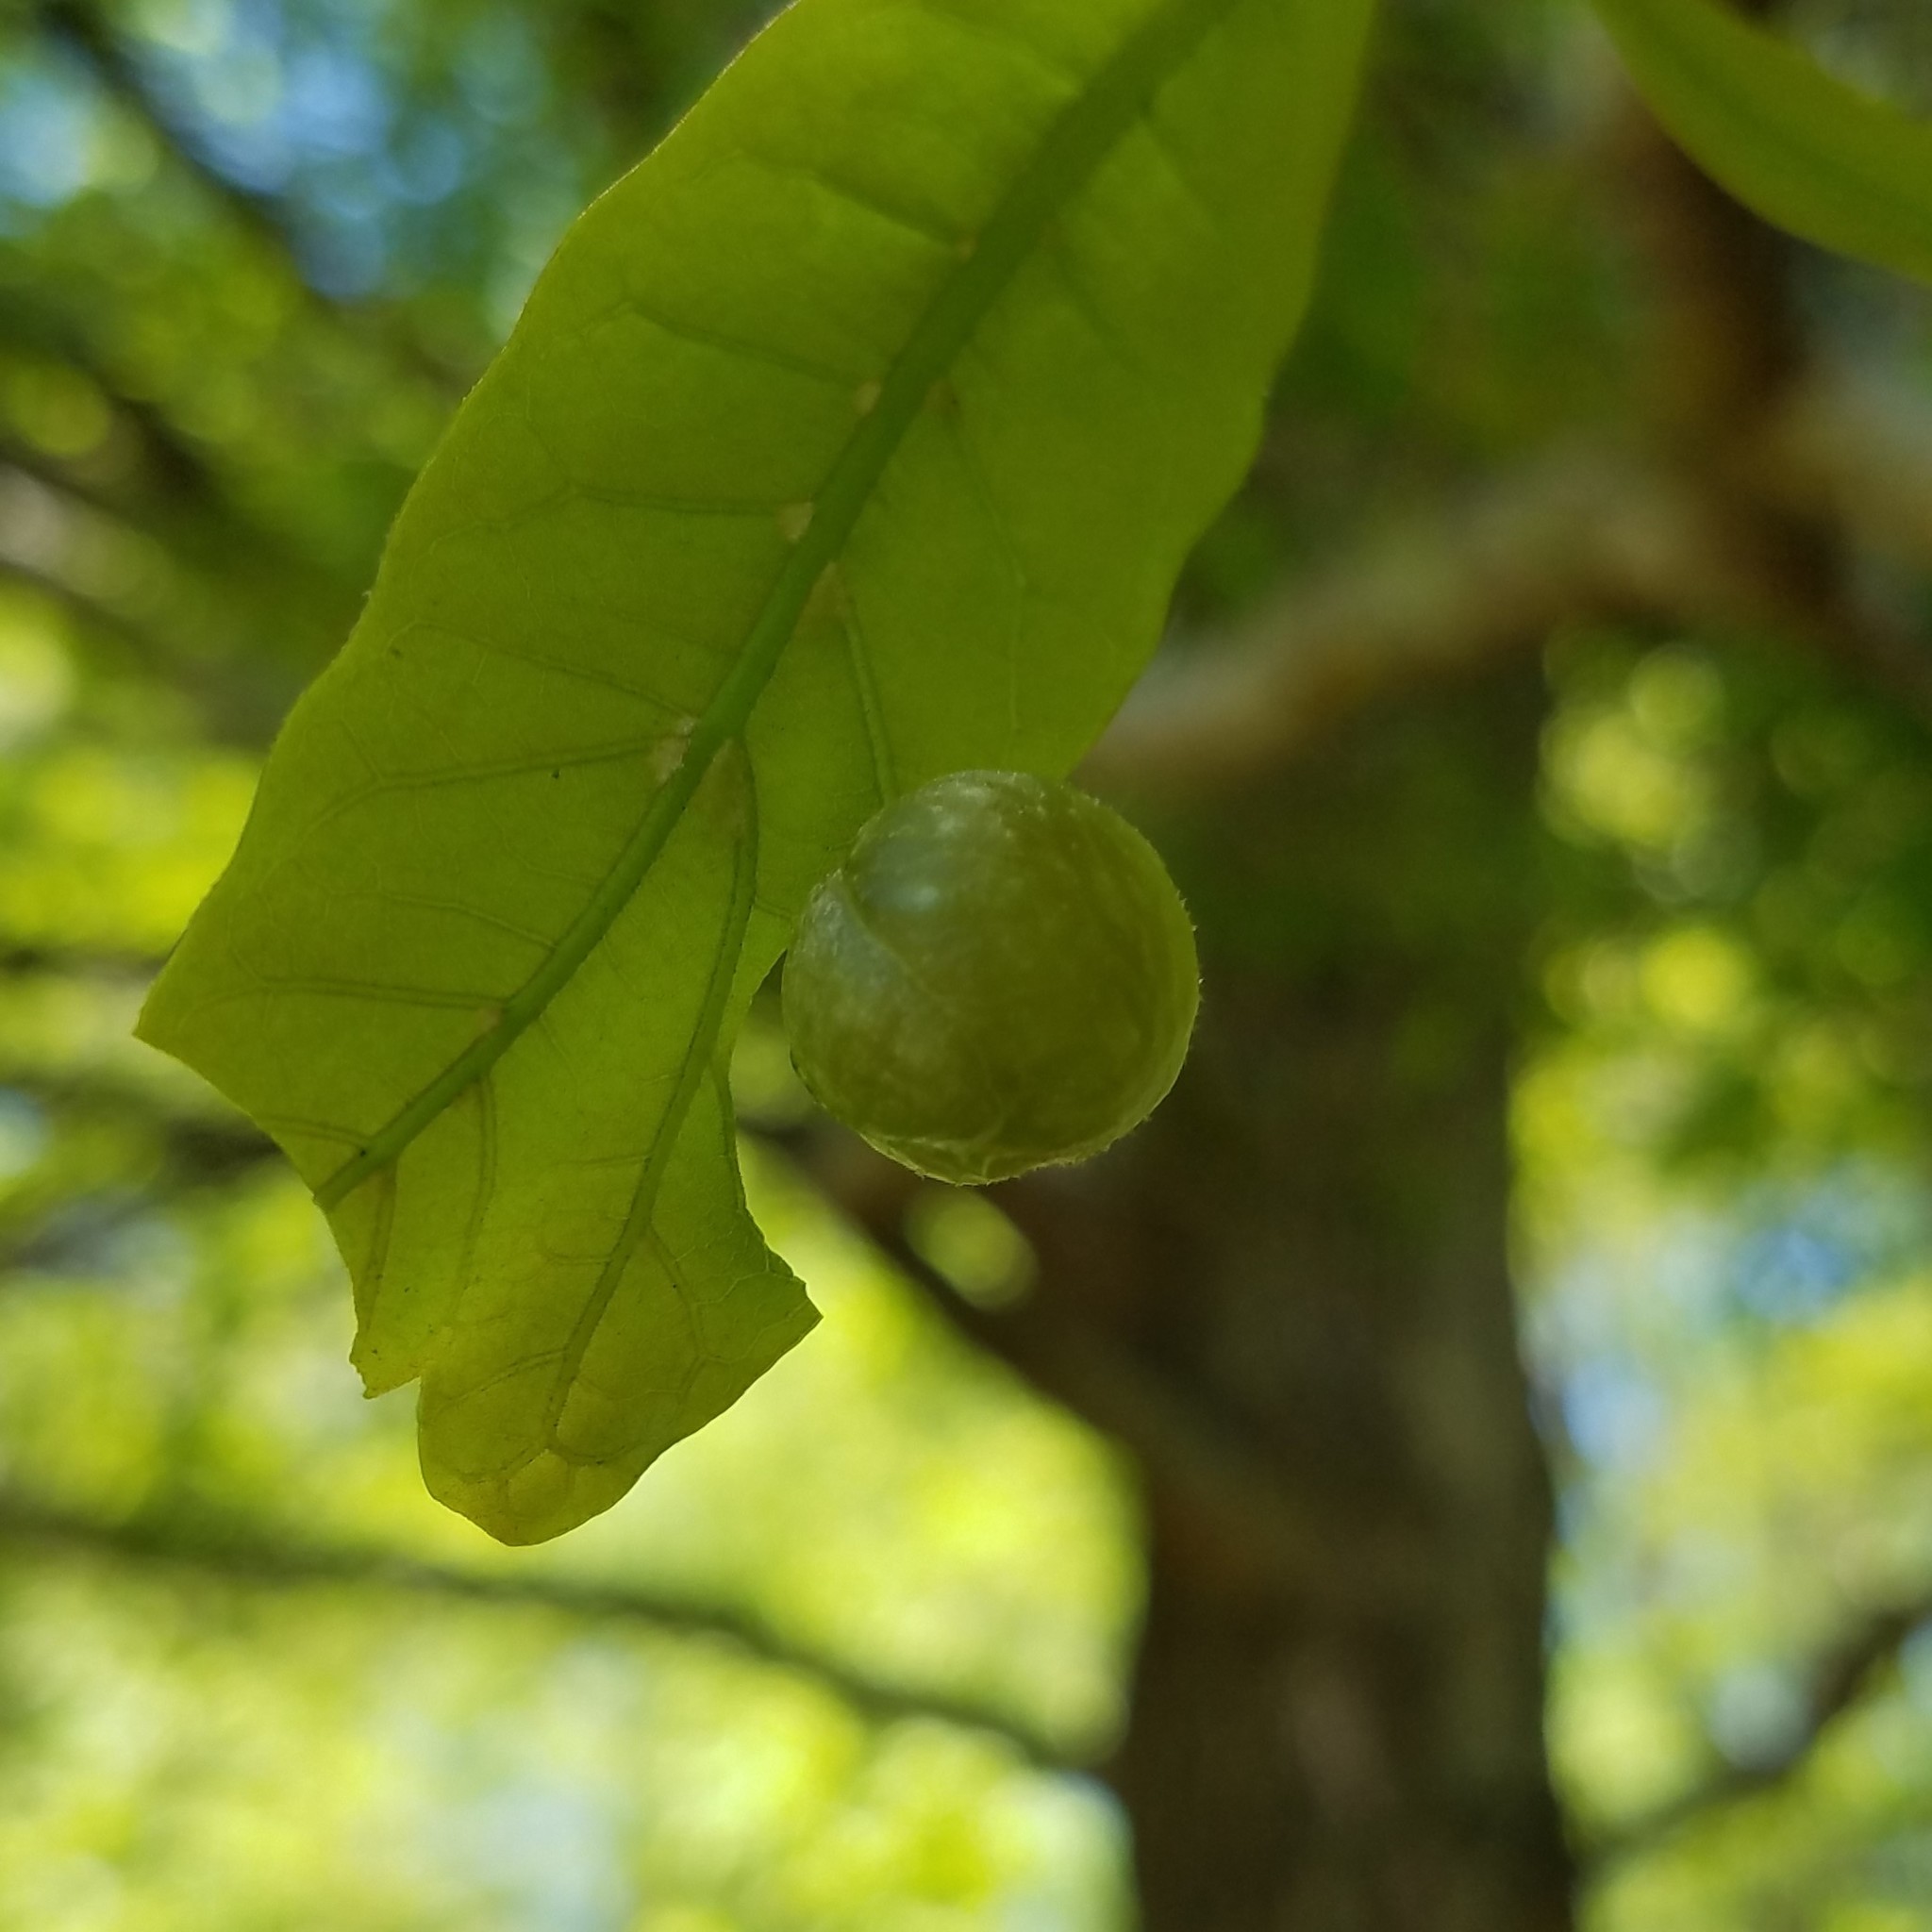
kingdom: Animalia
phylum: Arthropoda
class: Insecta
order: Hymenoptera
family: Cynipidae
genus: Dryocosmus
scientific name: Dryocosmus quercuspalustris
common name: Succulent oak gall wasp
